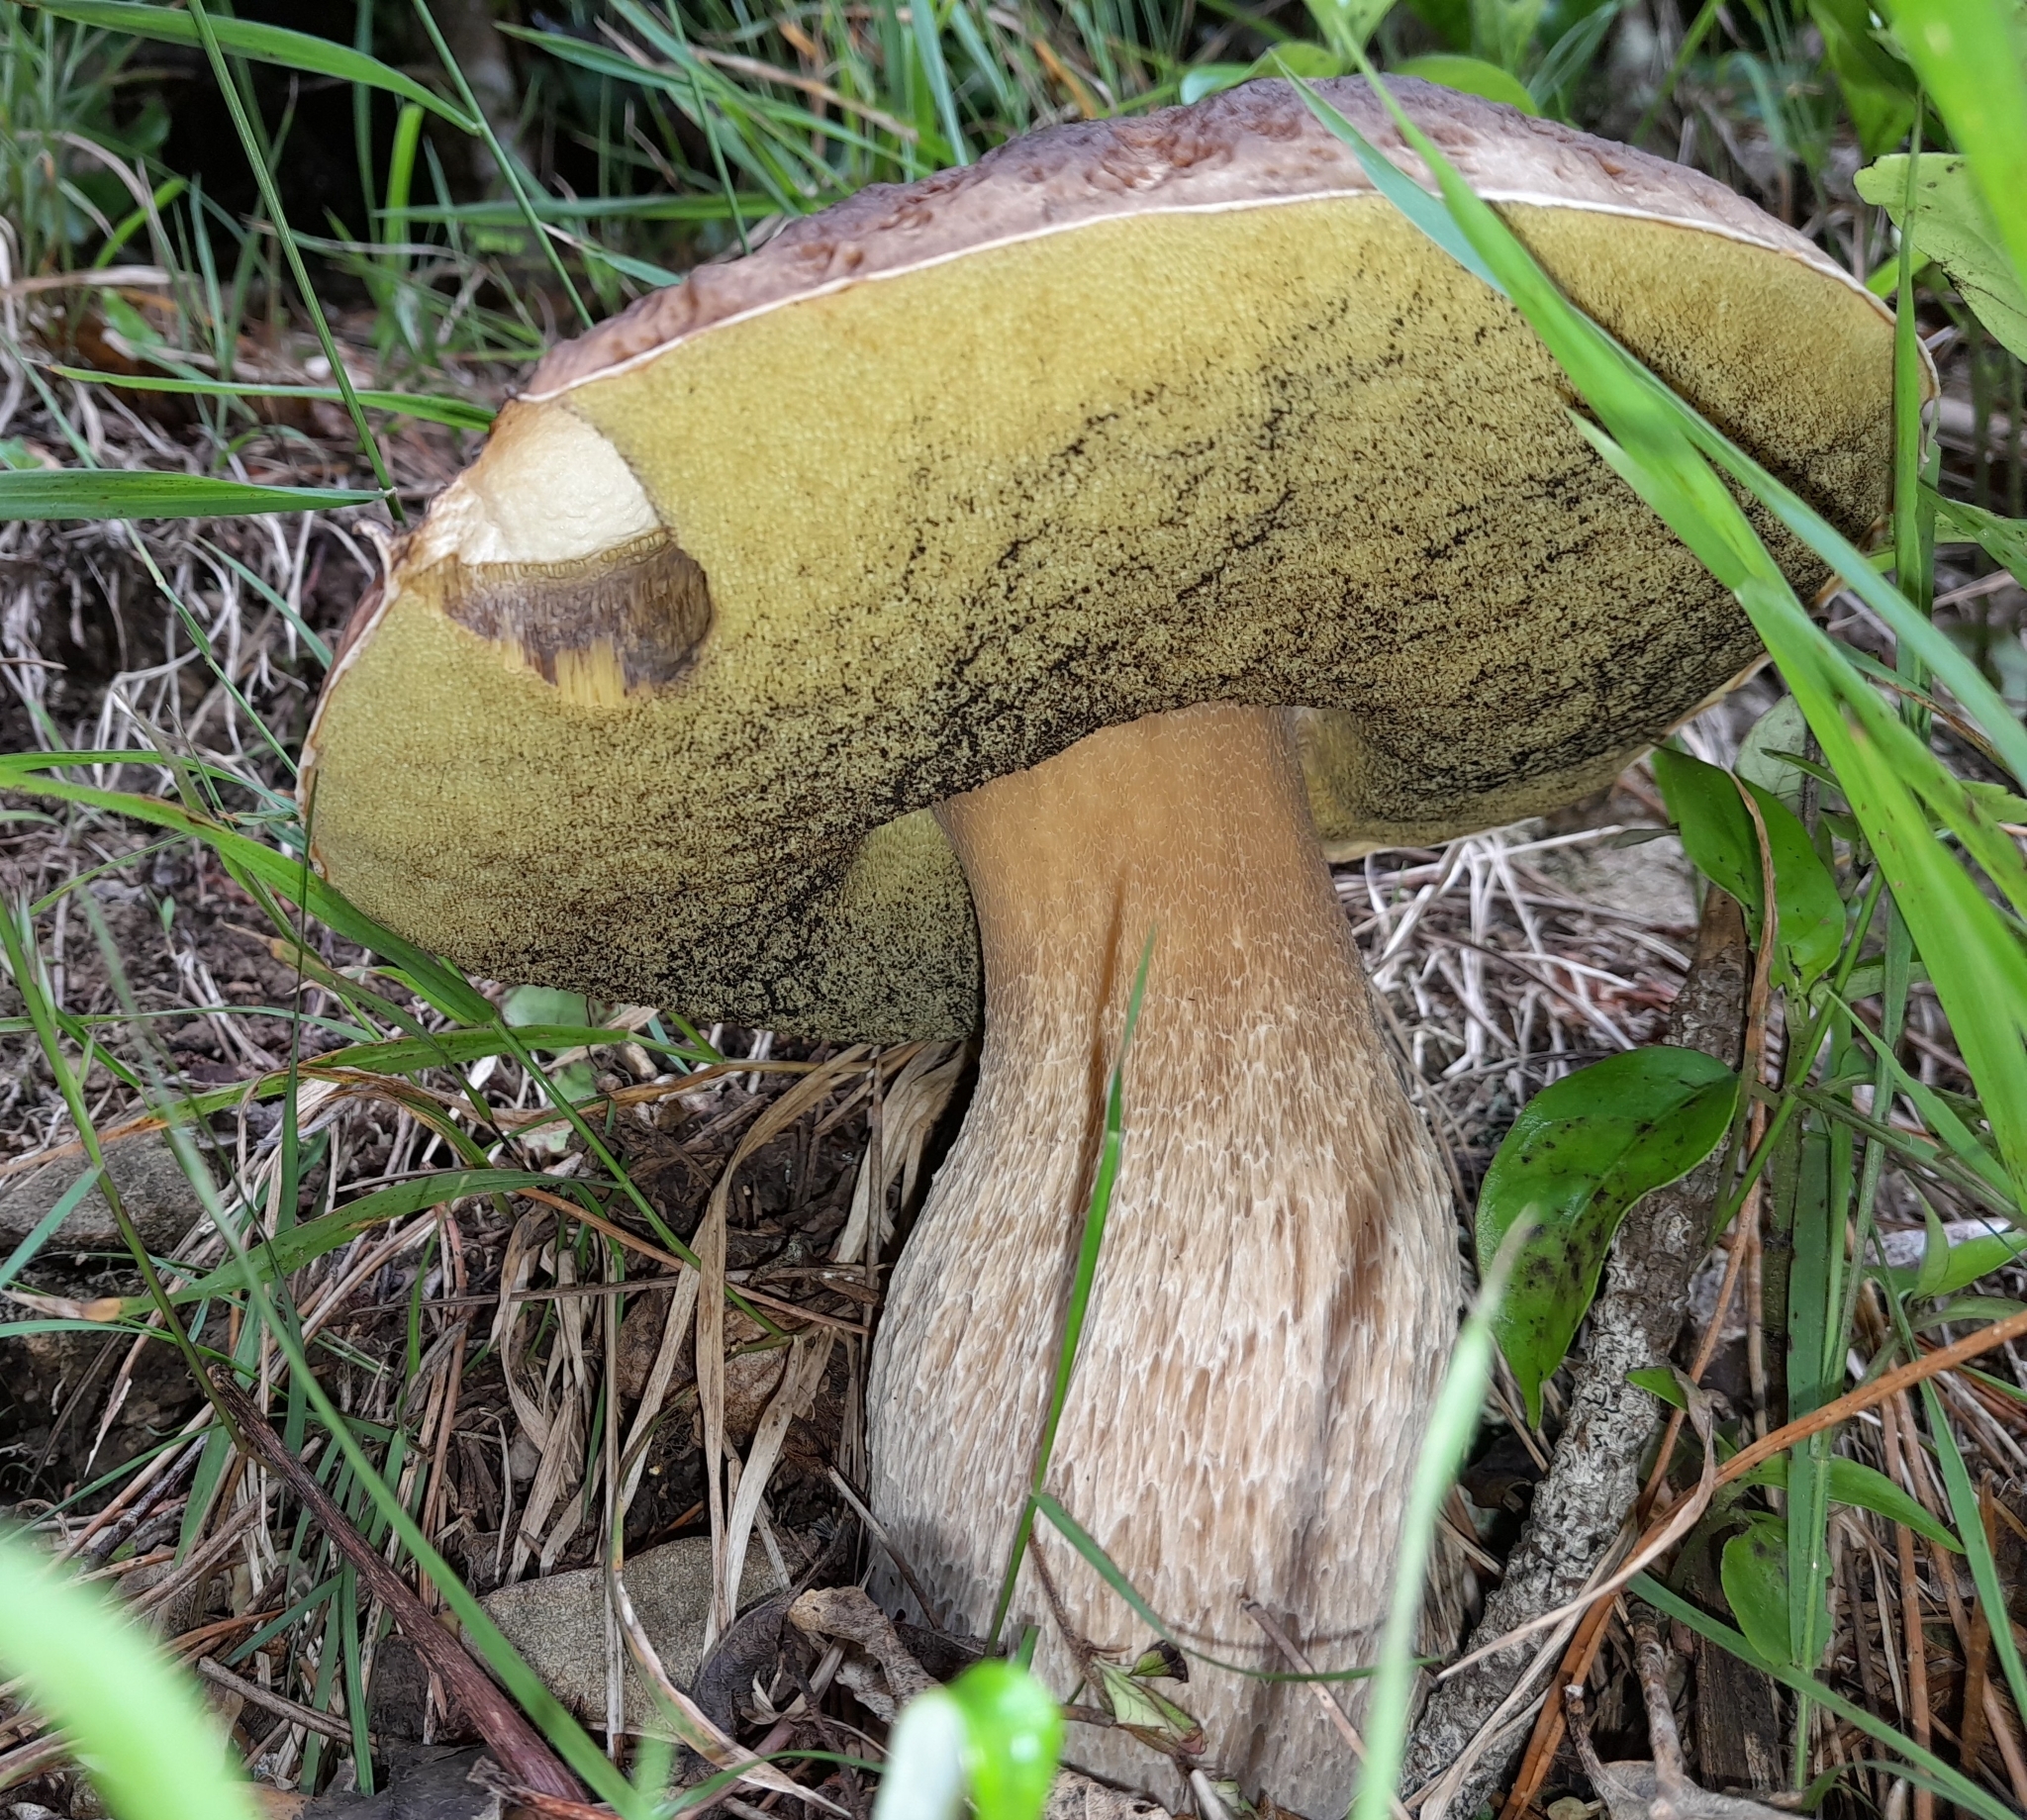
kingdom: Fungi
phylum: Basidiomycota
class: Agaricomycetes
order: Boletales
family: Boletaceae
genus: Boletus
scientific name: Boletus edulis
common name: Cep
